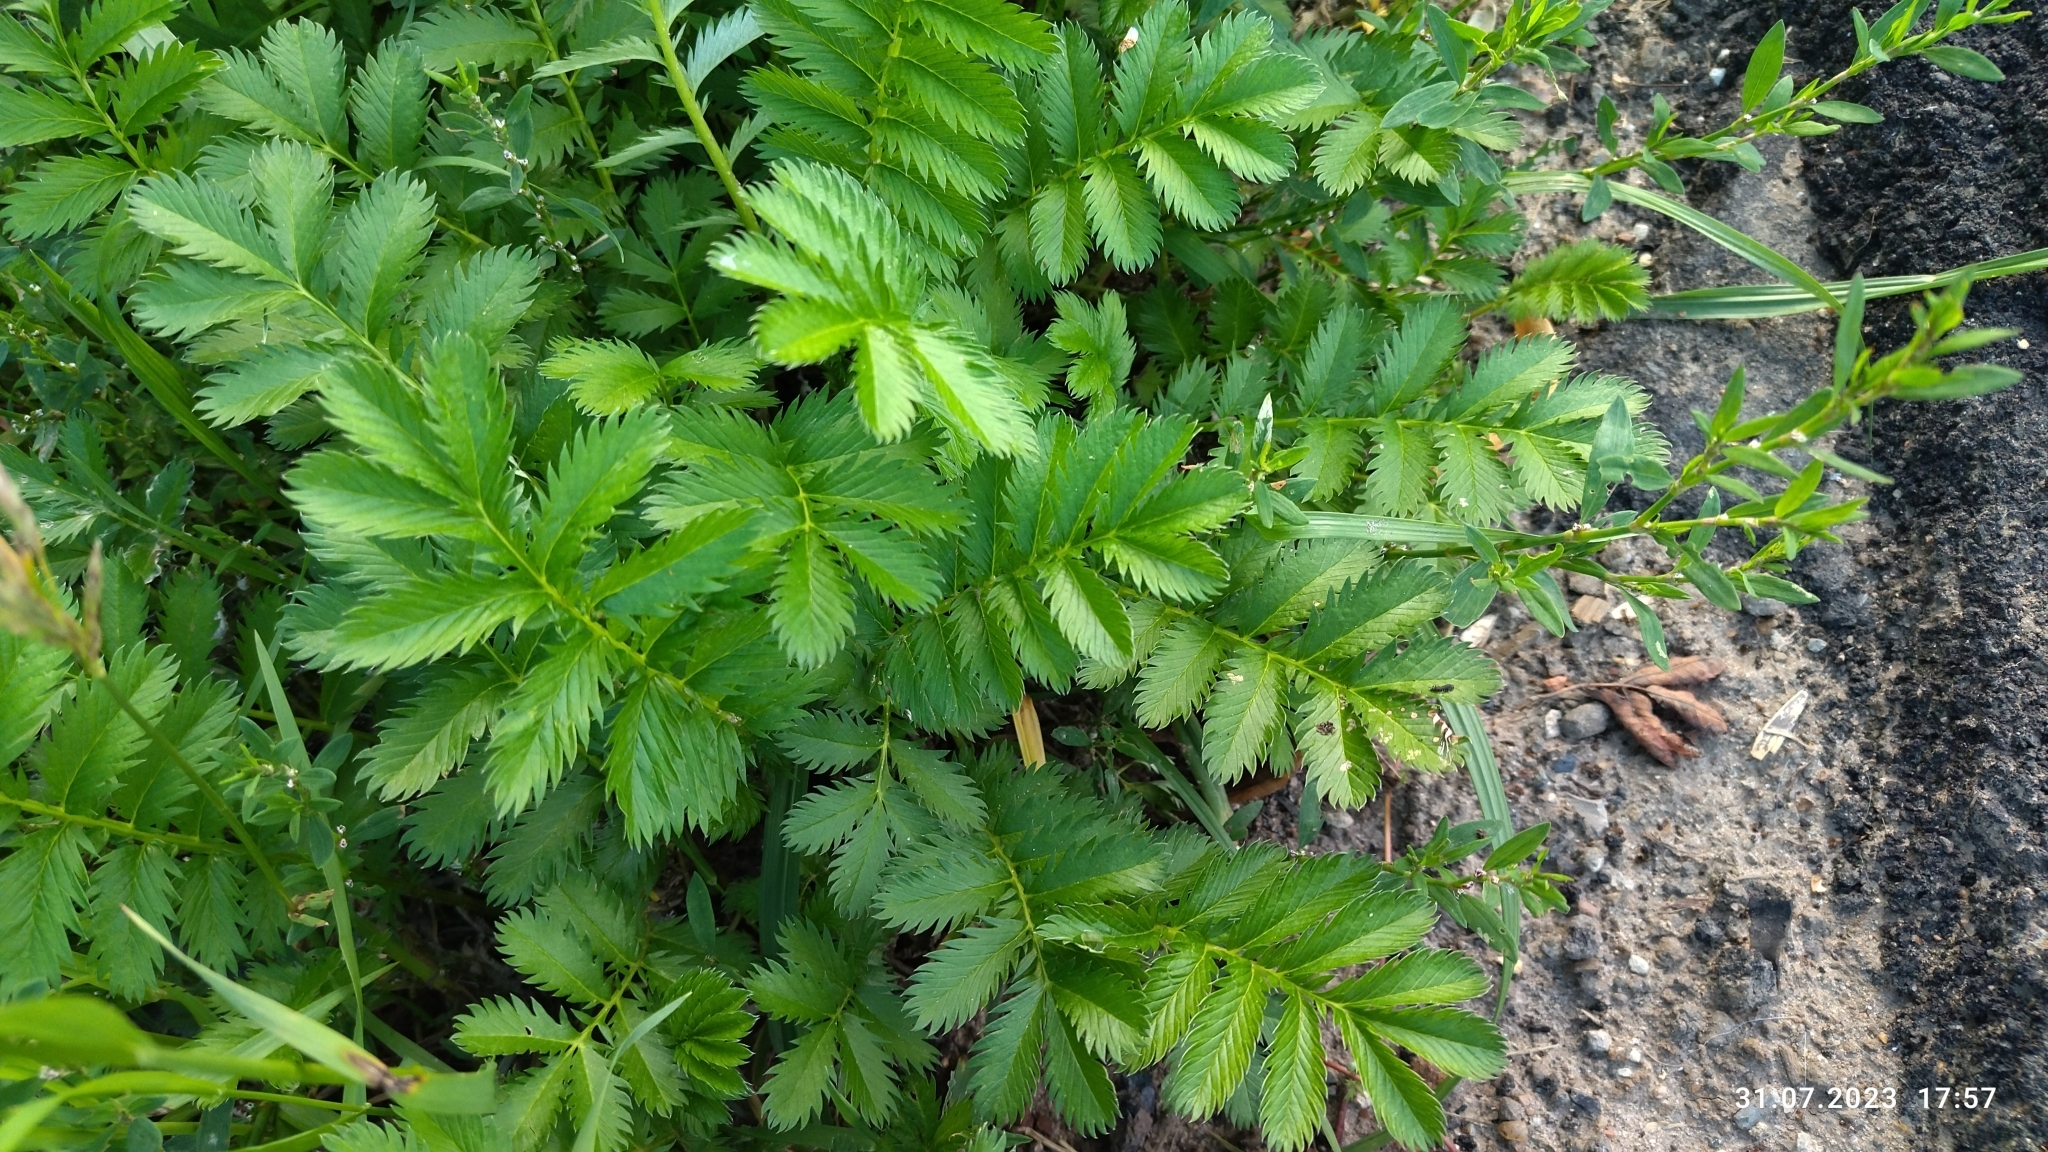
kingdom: Plantae
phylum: Tracheophyta
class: Magnoliopsida
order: Rosales
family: Rosaceae
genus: Argentina
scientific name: Argentina anserina
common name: Common silverweed
